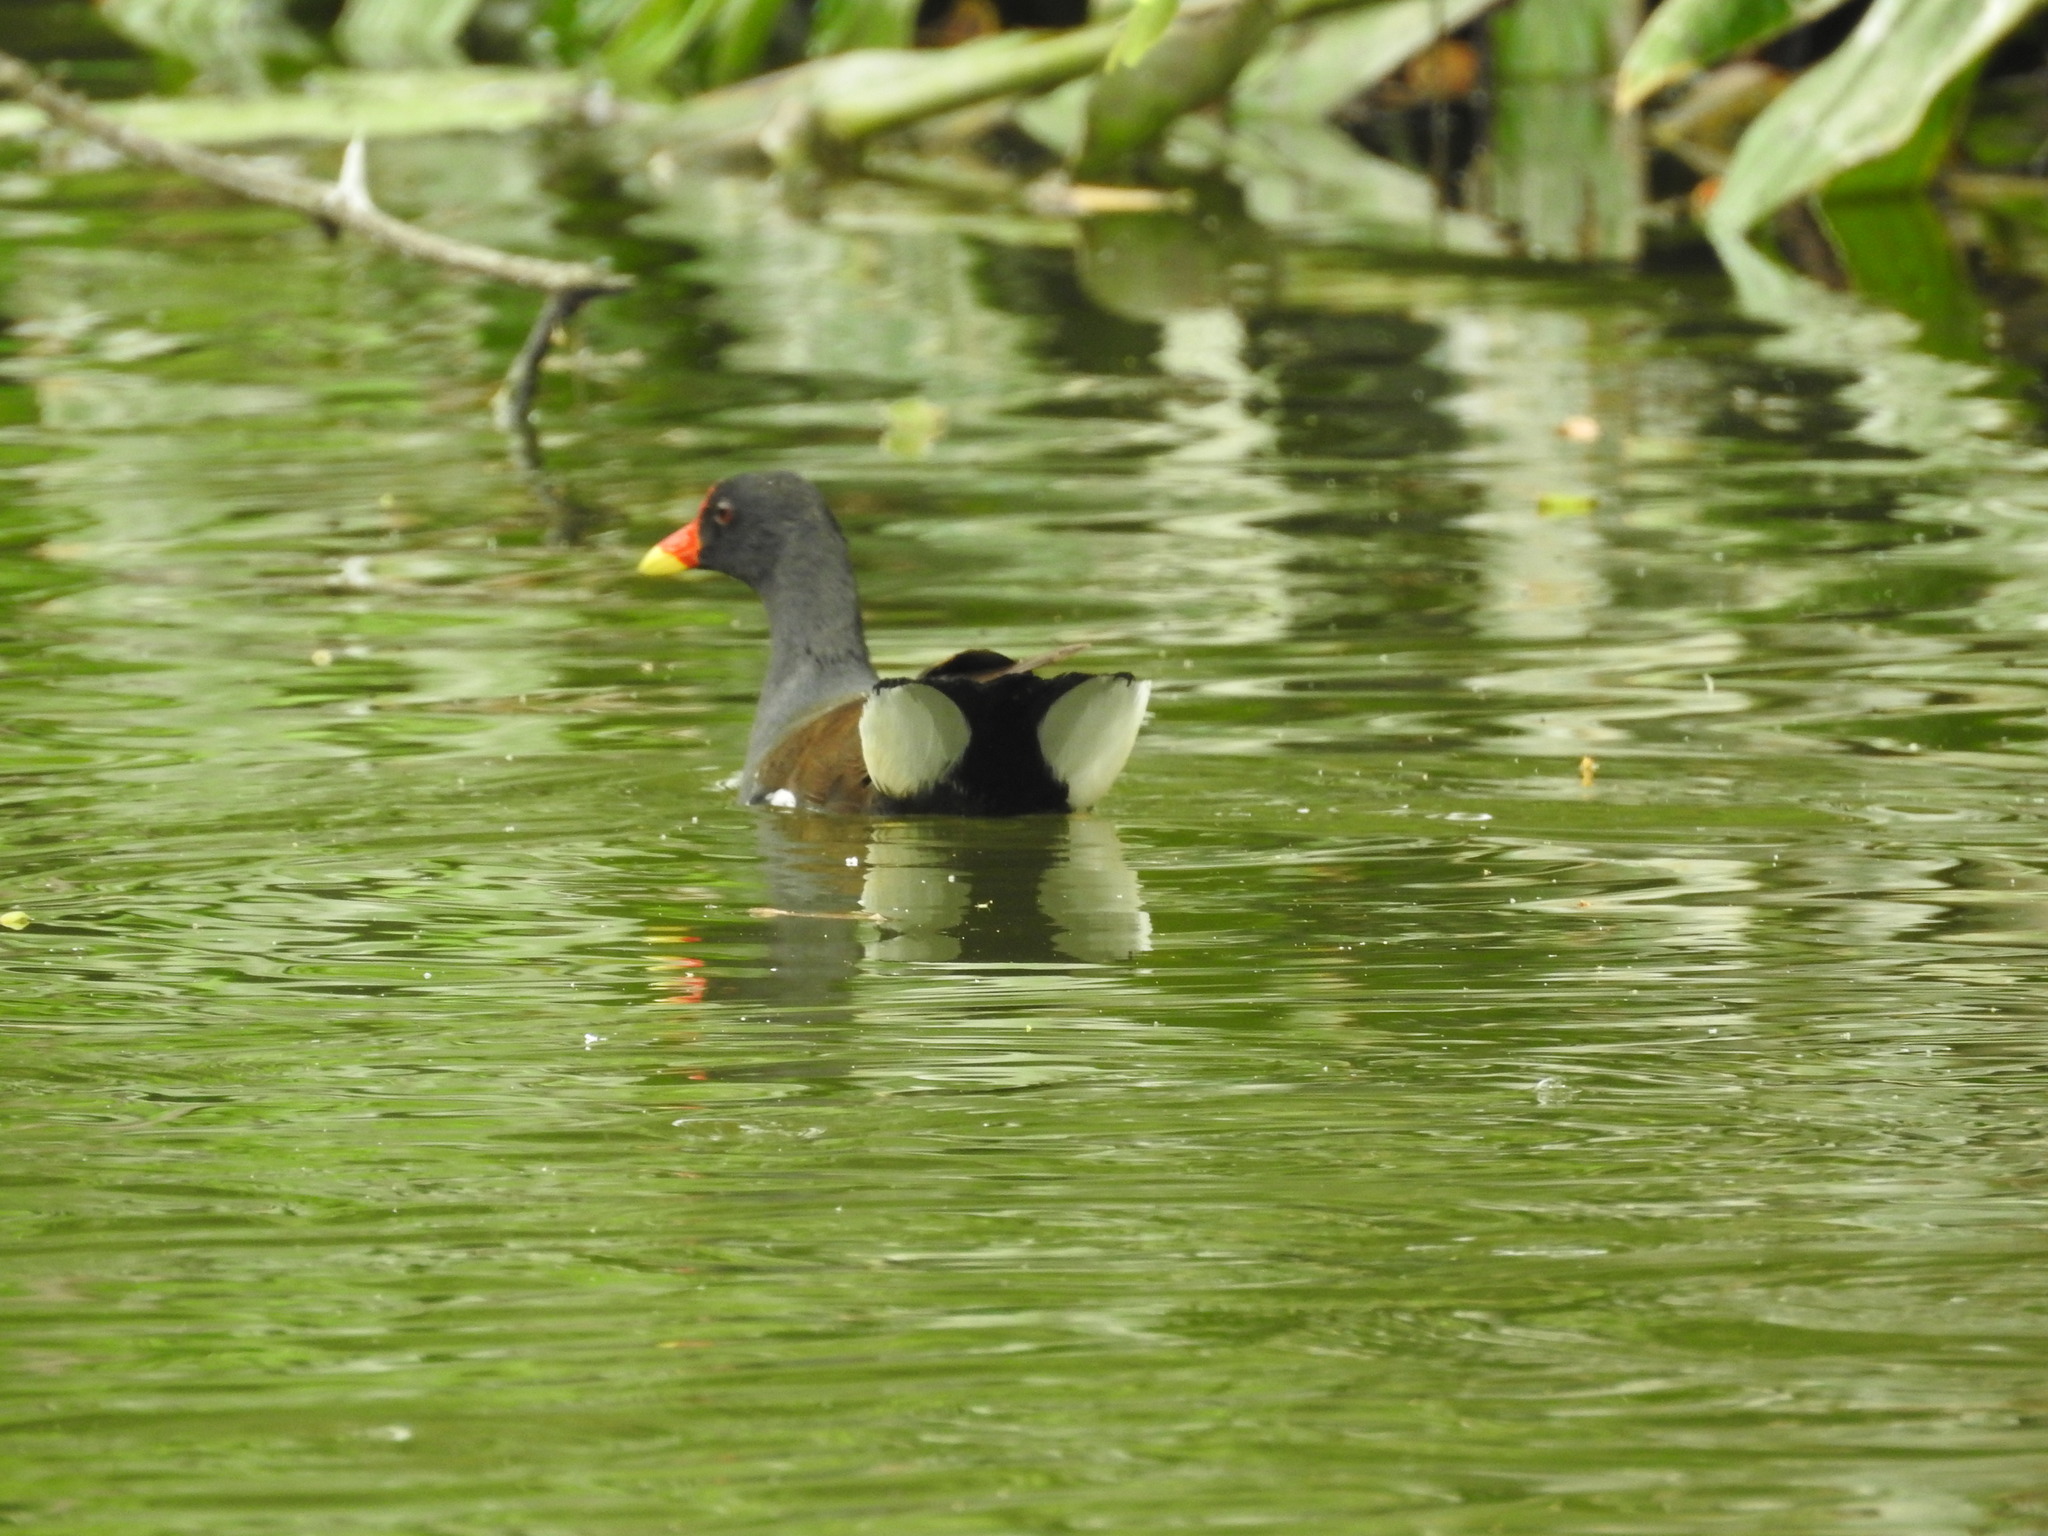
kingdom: Animalia
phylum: Chordata
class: Aves
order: Gruiformes
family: Rallidae
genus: Gallinula
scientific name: Gallinula chloropus
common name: Common moorhen
